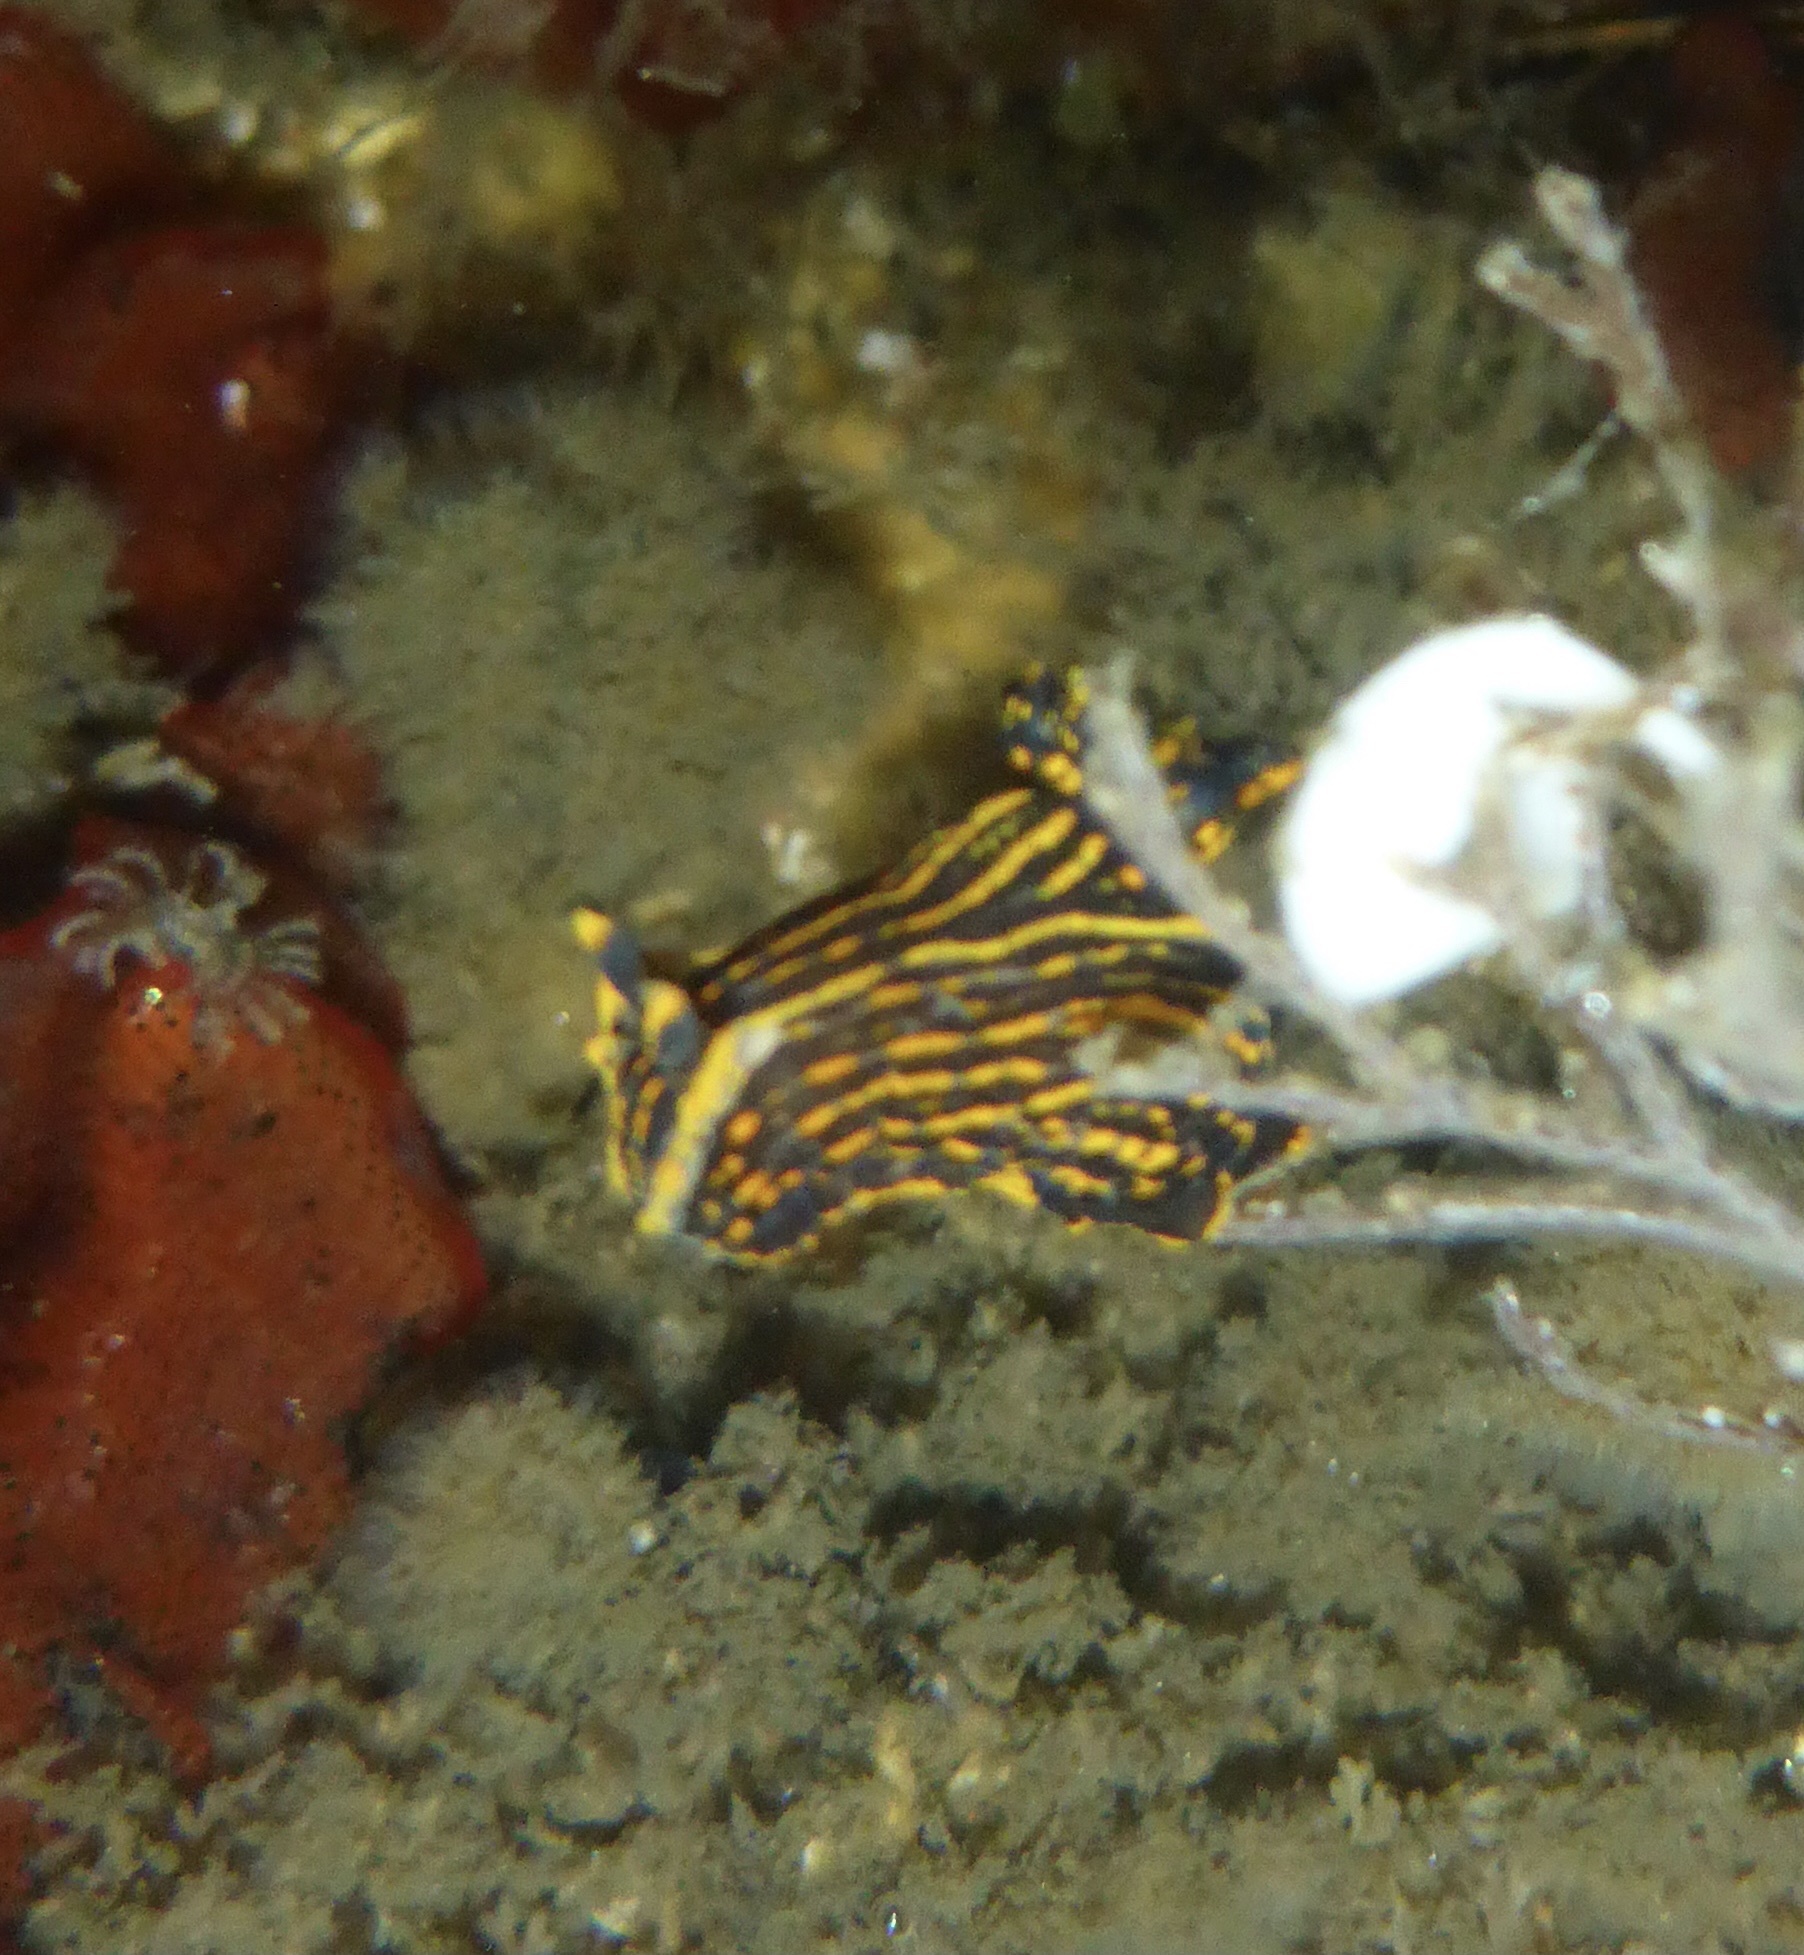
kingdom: Animalia
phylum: Mollusca
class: Gastropoda
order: Nudibranchia
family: Polyceridae
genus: Polycera
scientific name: Polycera atra
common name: Orange-spike polycera
